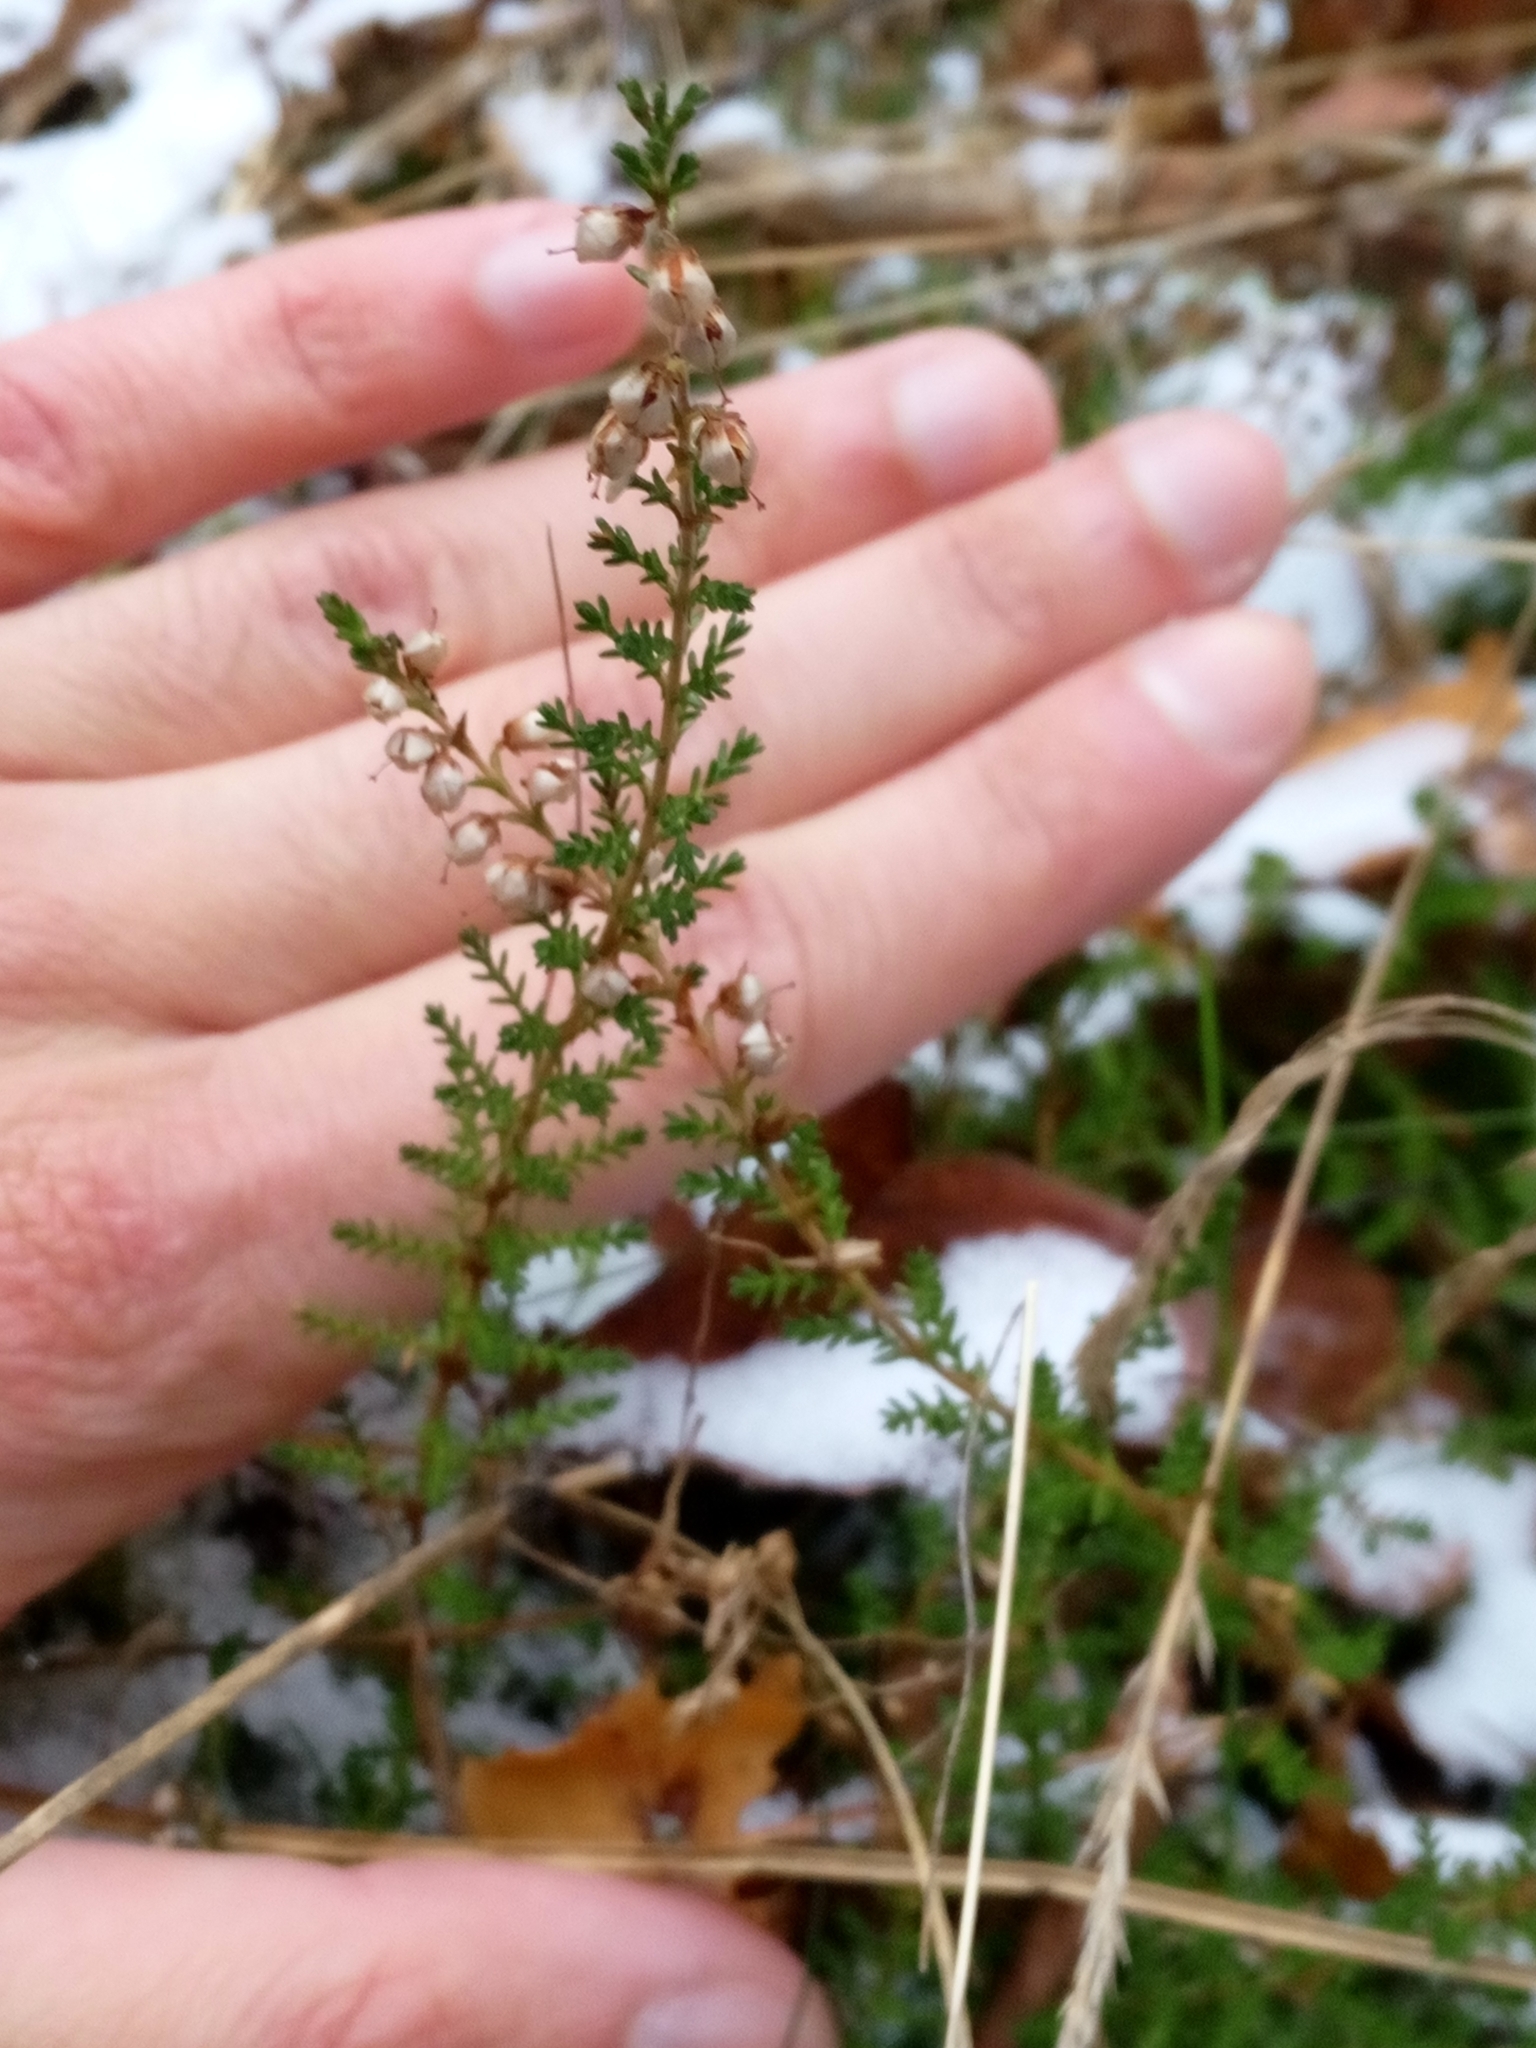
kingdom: Plantae
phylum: Tracheophyta
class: Magnoliopsida
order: Ericales
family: Ericaceae
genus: Calluna
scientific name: Calluna vulgaris
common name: Heather
